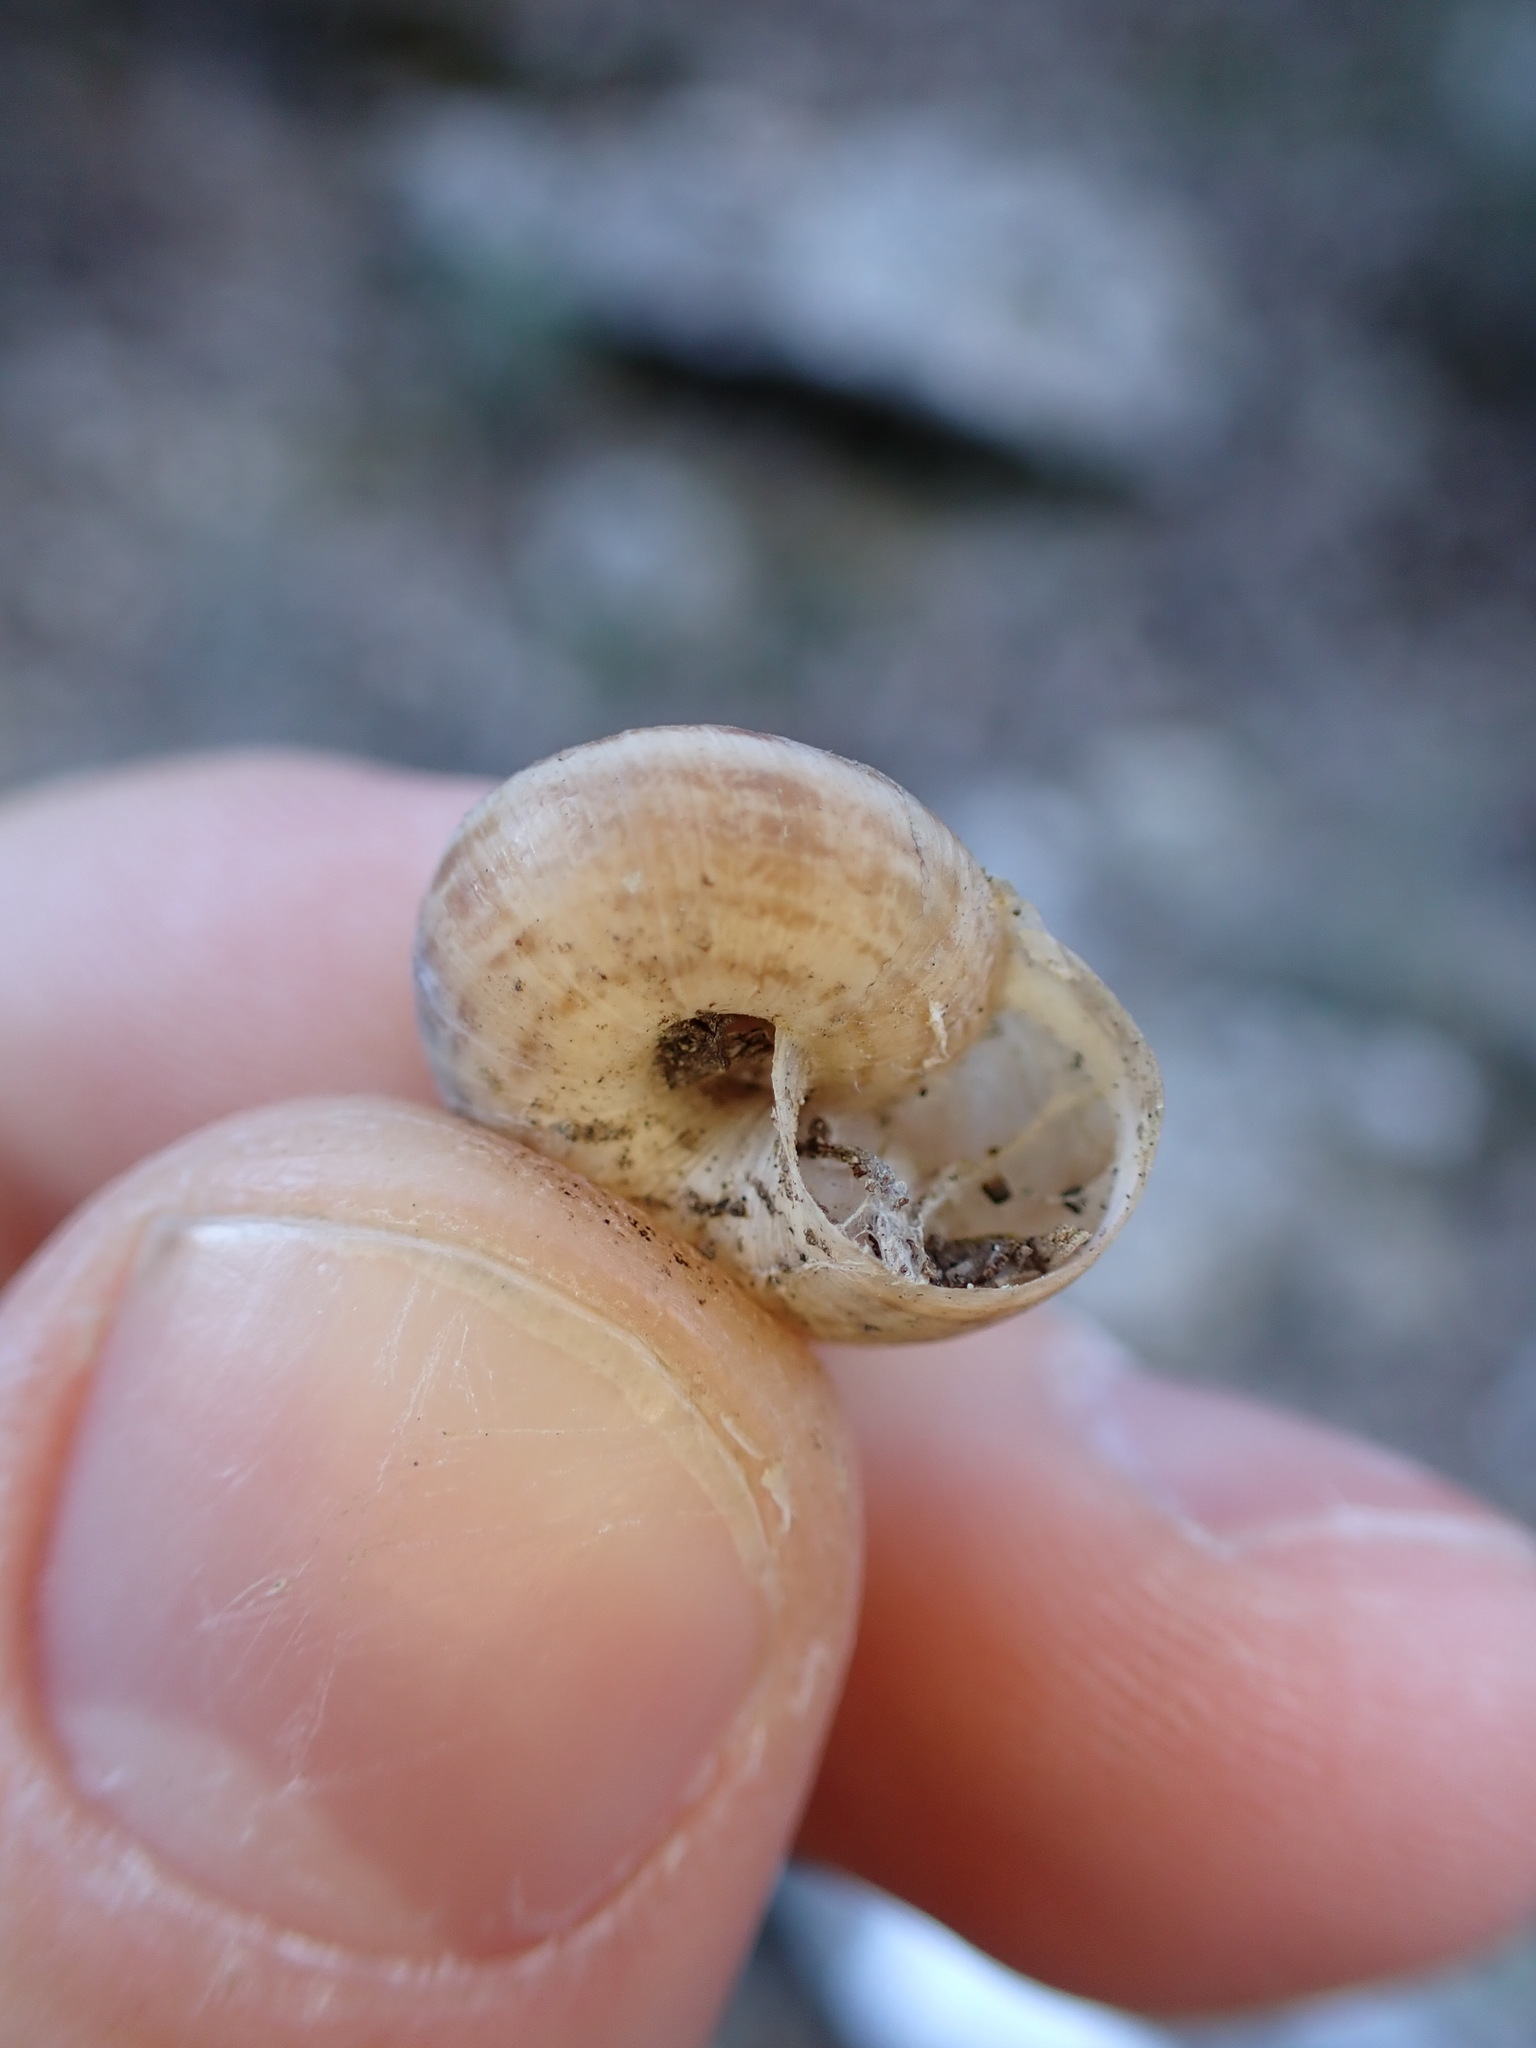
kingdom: Animalia
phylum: Mollusca
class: Gastropoda
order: Stylommatophora
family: Geomitridae
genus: Xerosecta
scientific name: Xerosecta cespitum
